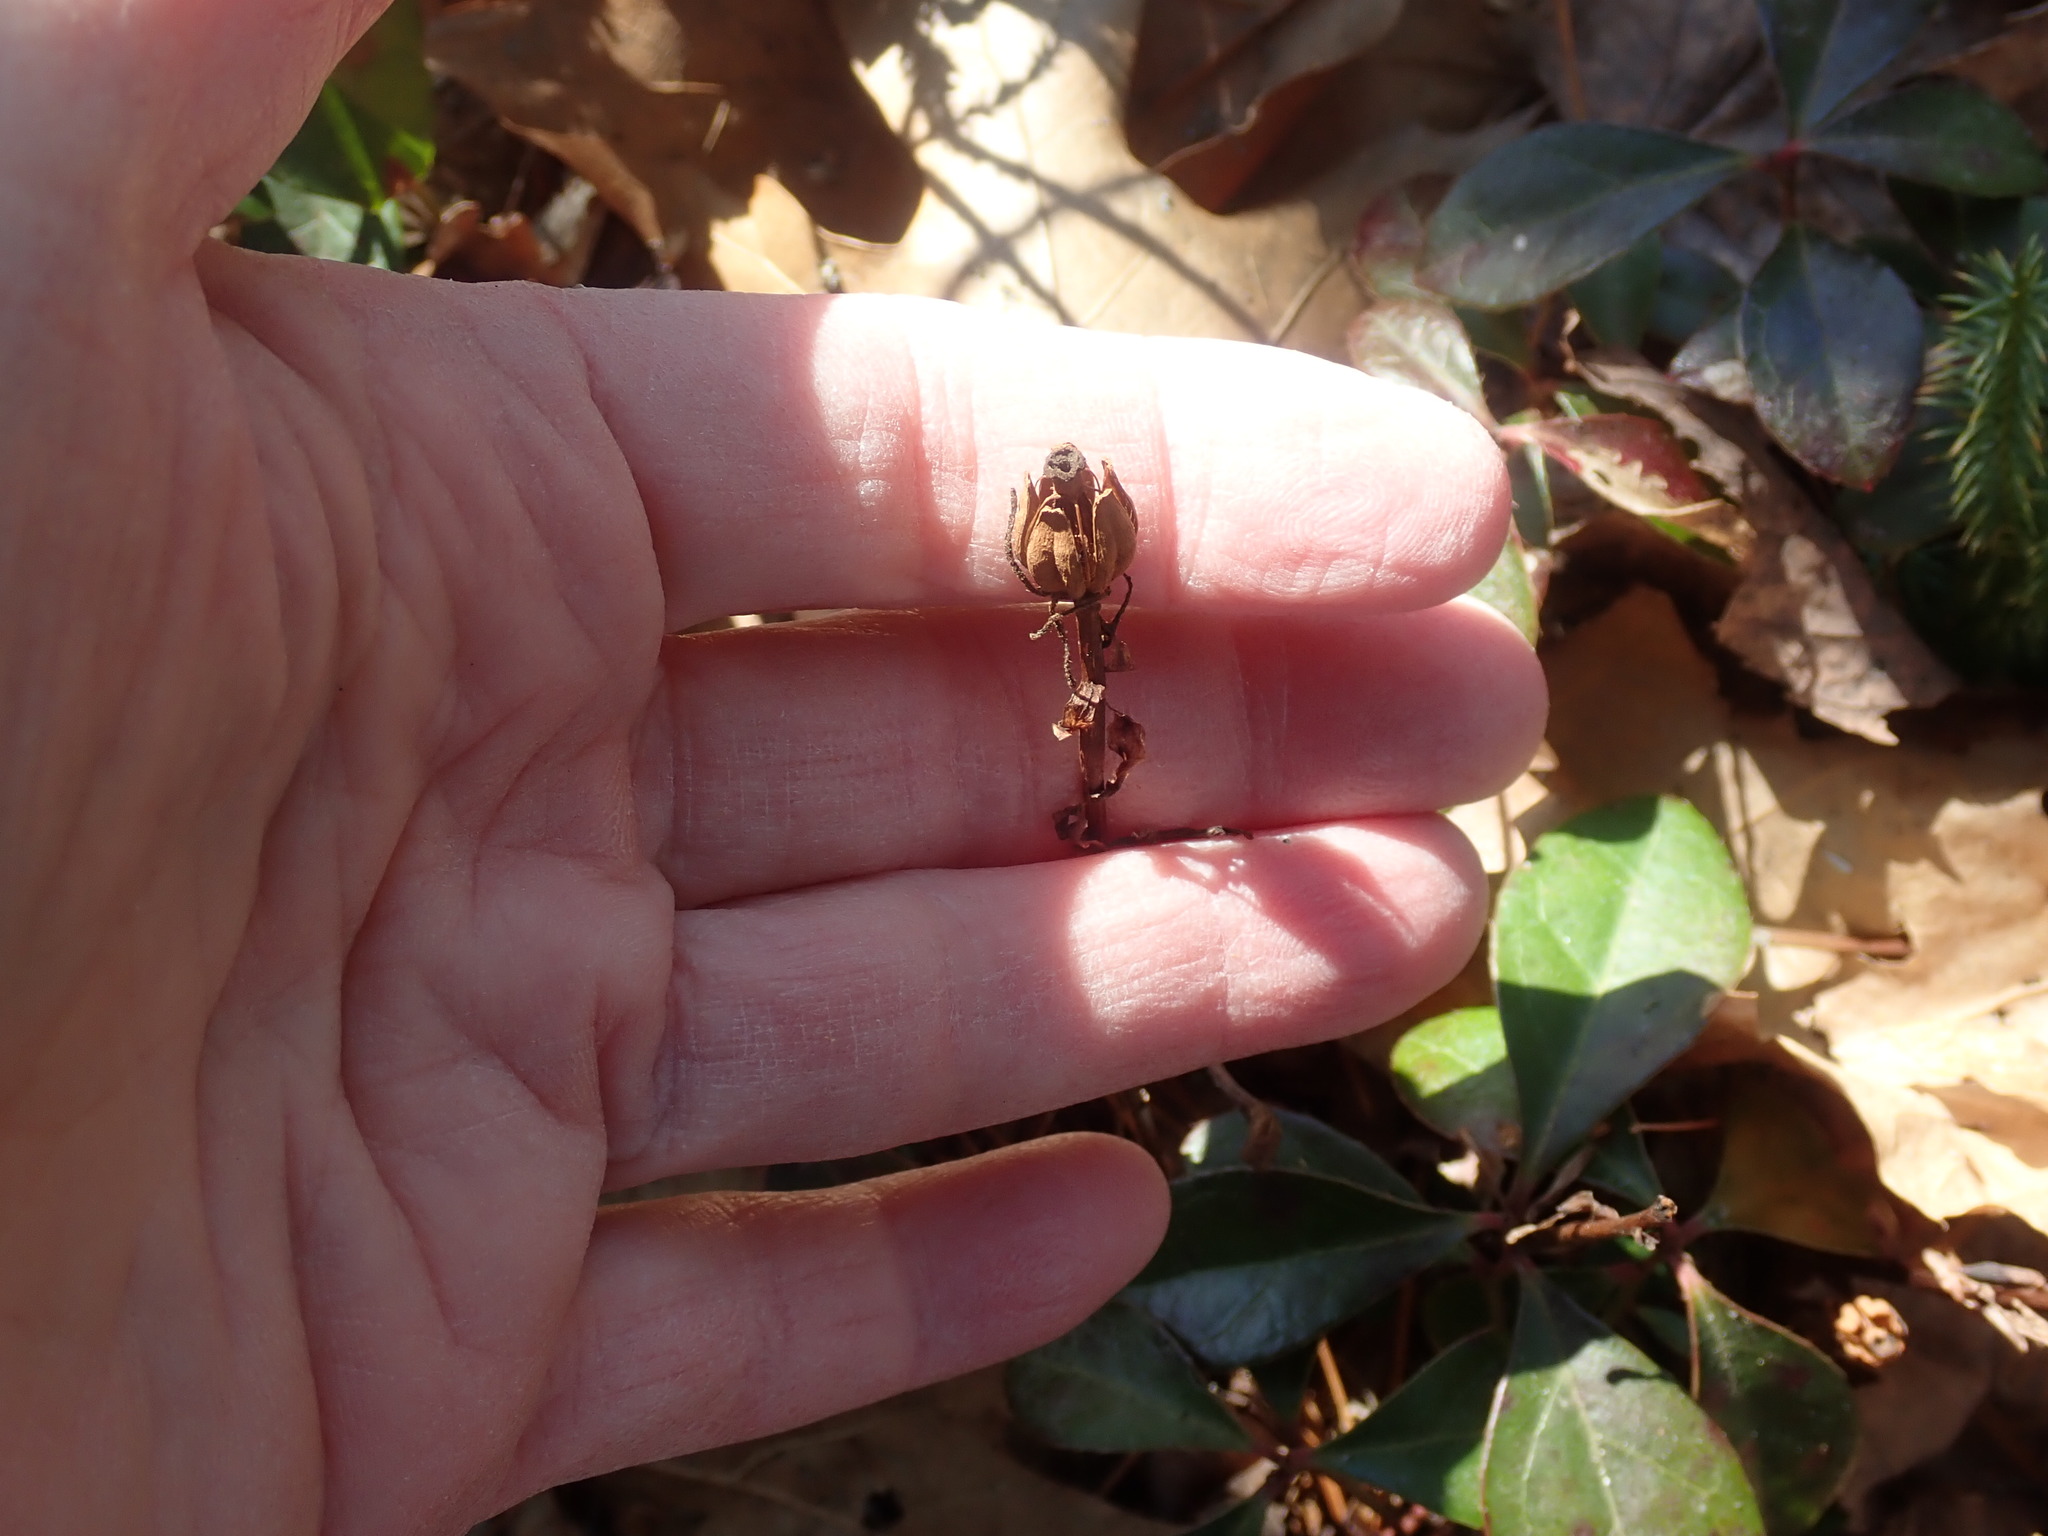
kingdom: Plantae
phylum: Tracheophyta
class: Magnoliopsida
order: Ericales
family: Ericaceae
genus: Monotropa
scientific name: Monotropa uniflora
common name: Convulsion root
